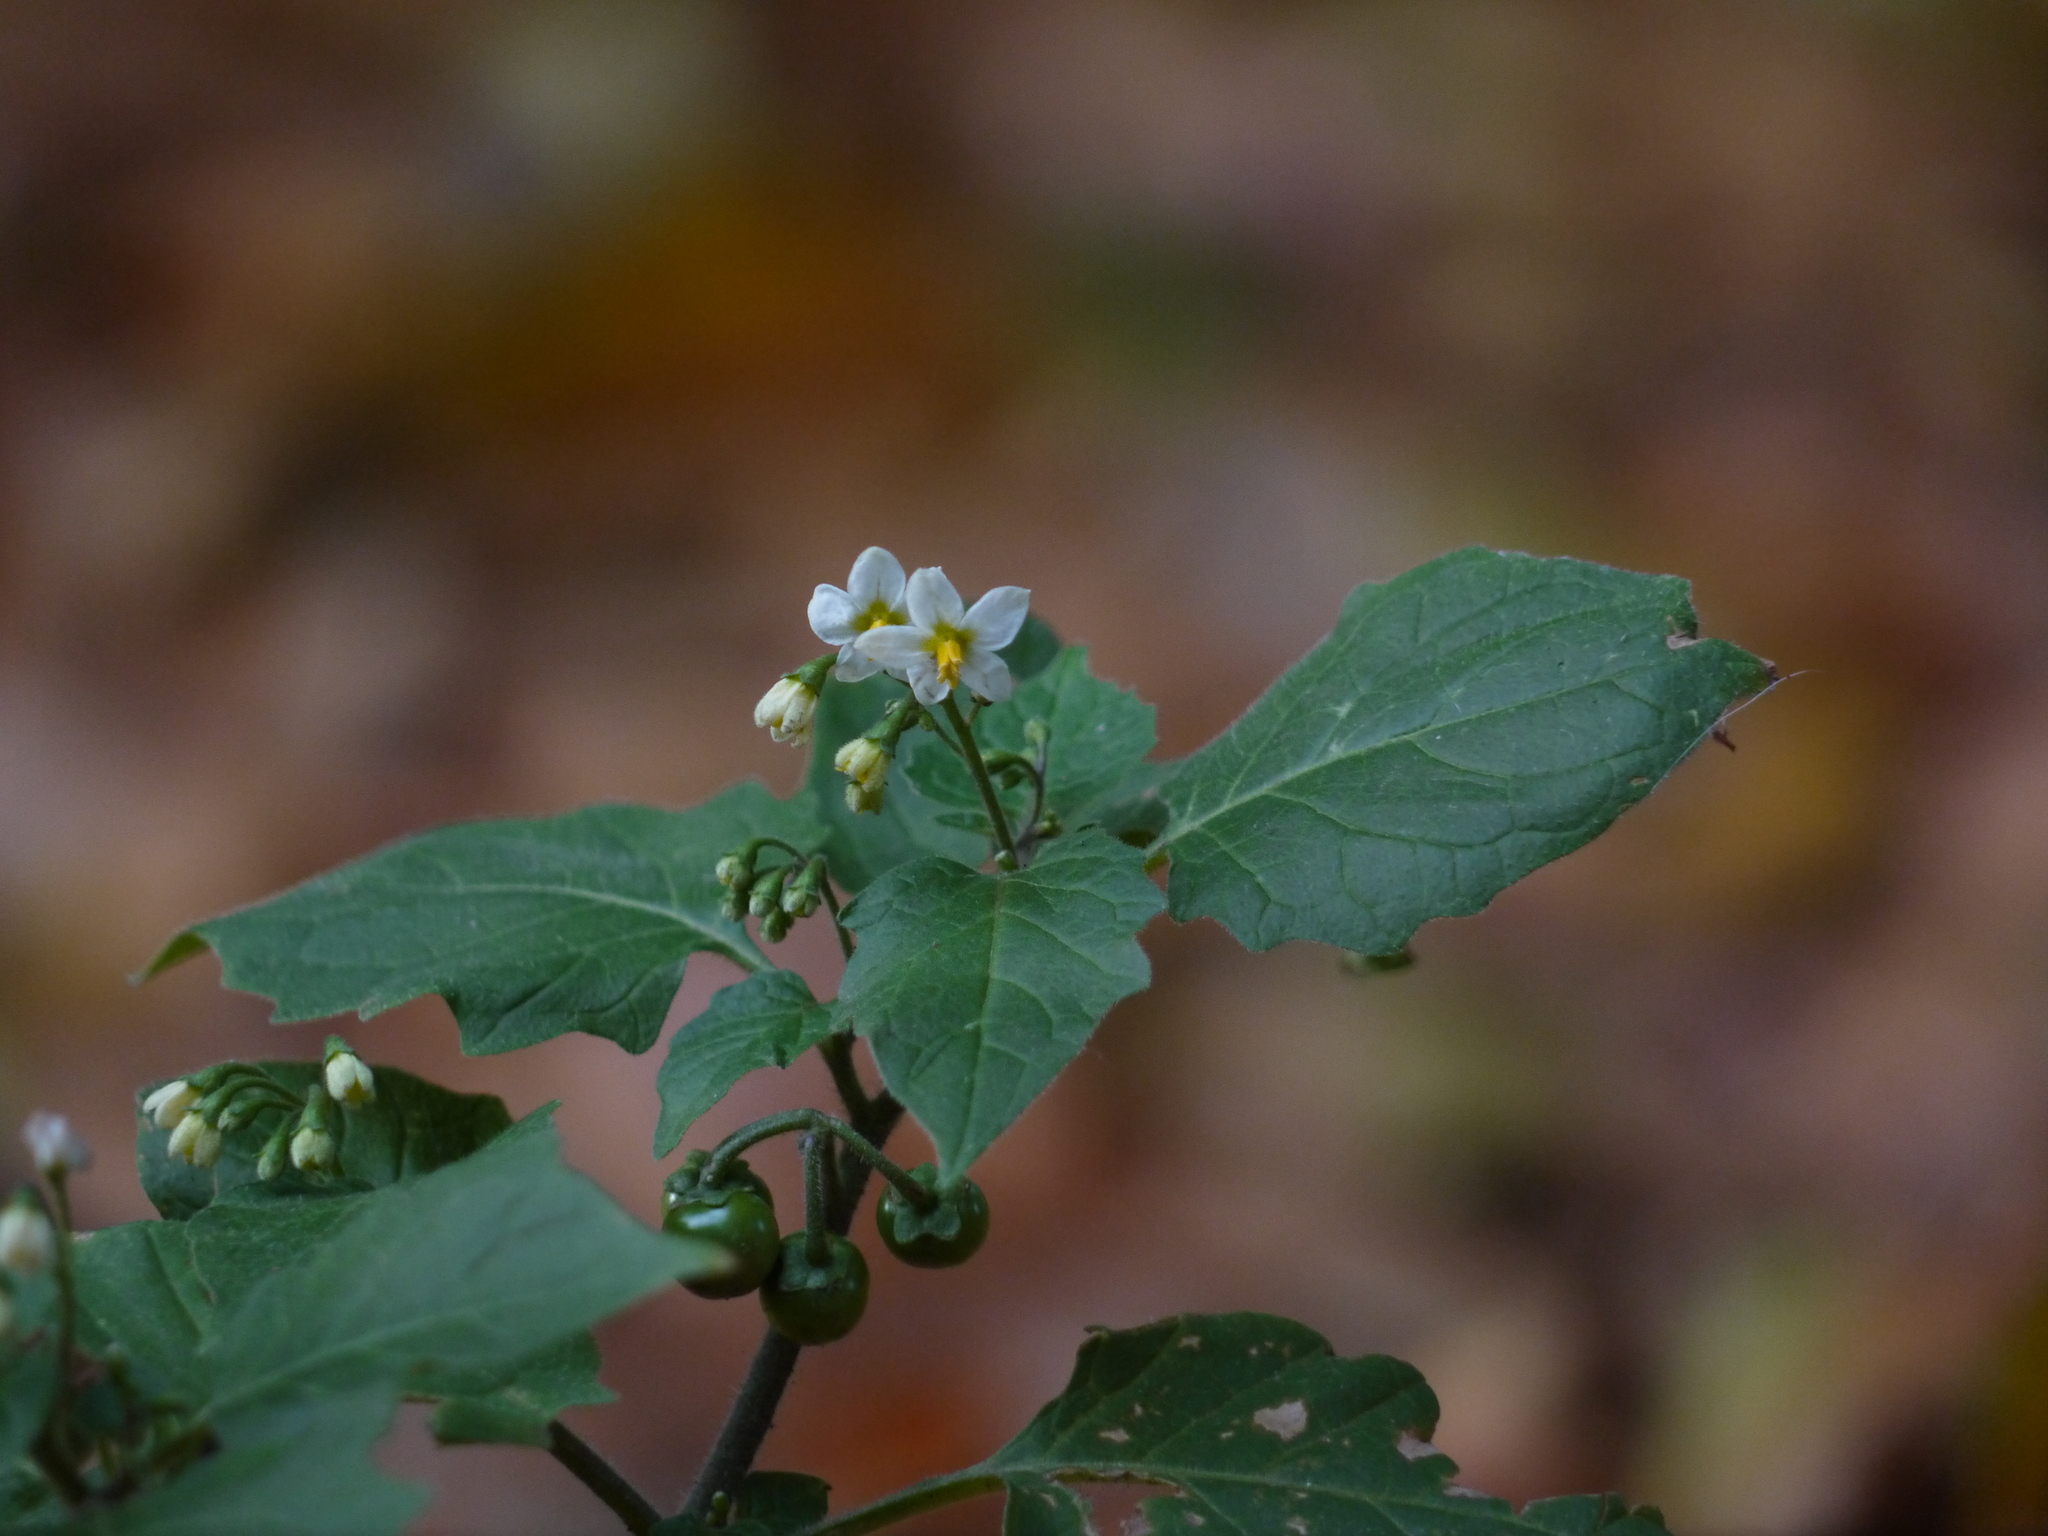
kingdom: Plantae
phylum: Tracheophyta
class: Magnoliopsida
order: Solanales
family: Solanaceae
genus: Solanum
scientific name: Solanum nigrum
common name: Black nightshade
